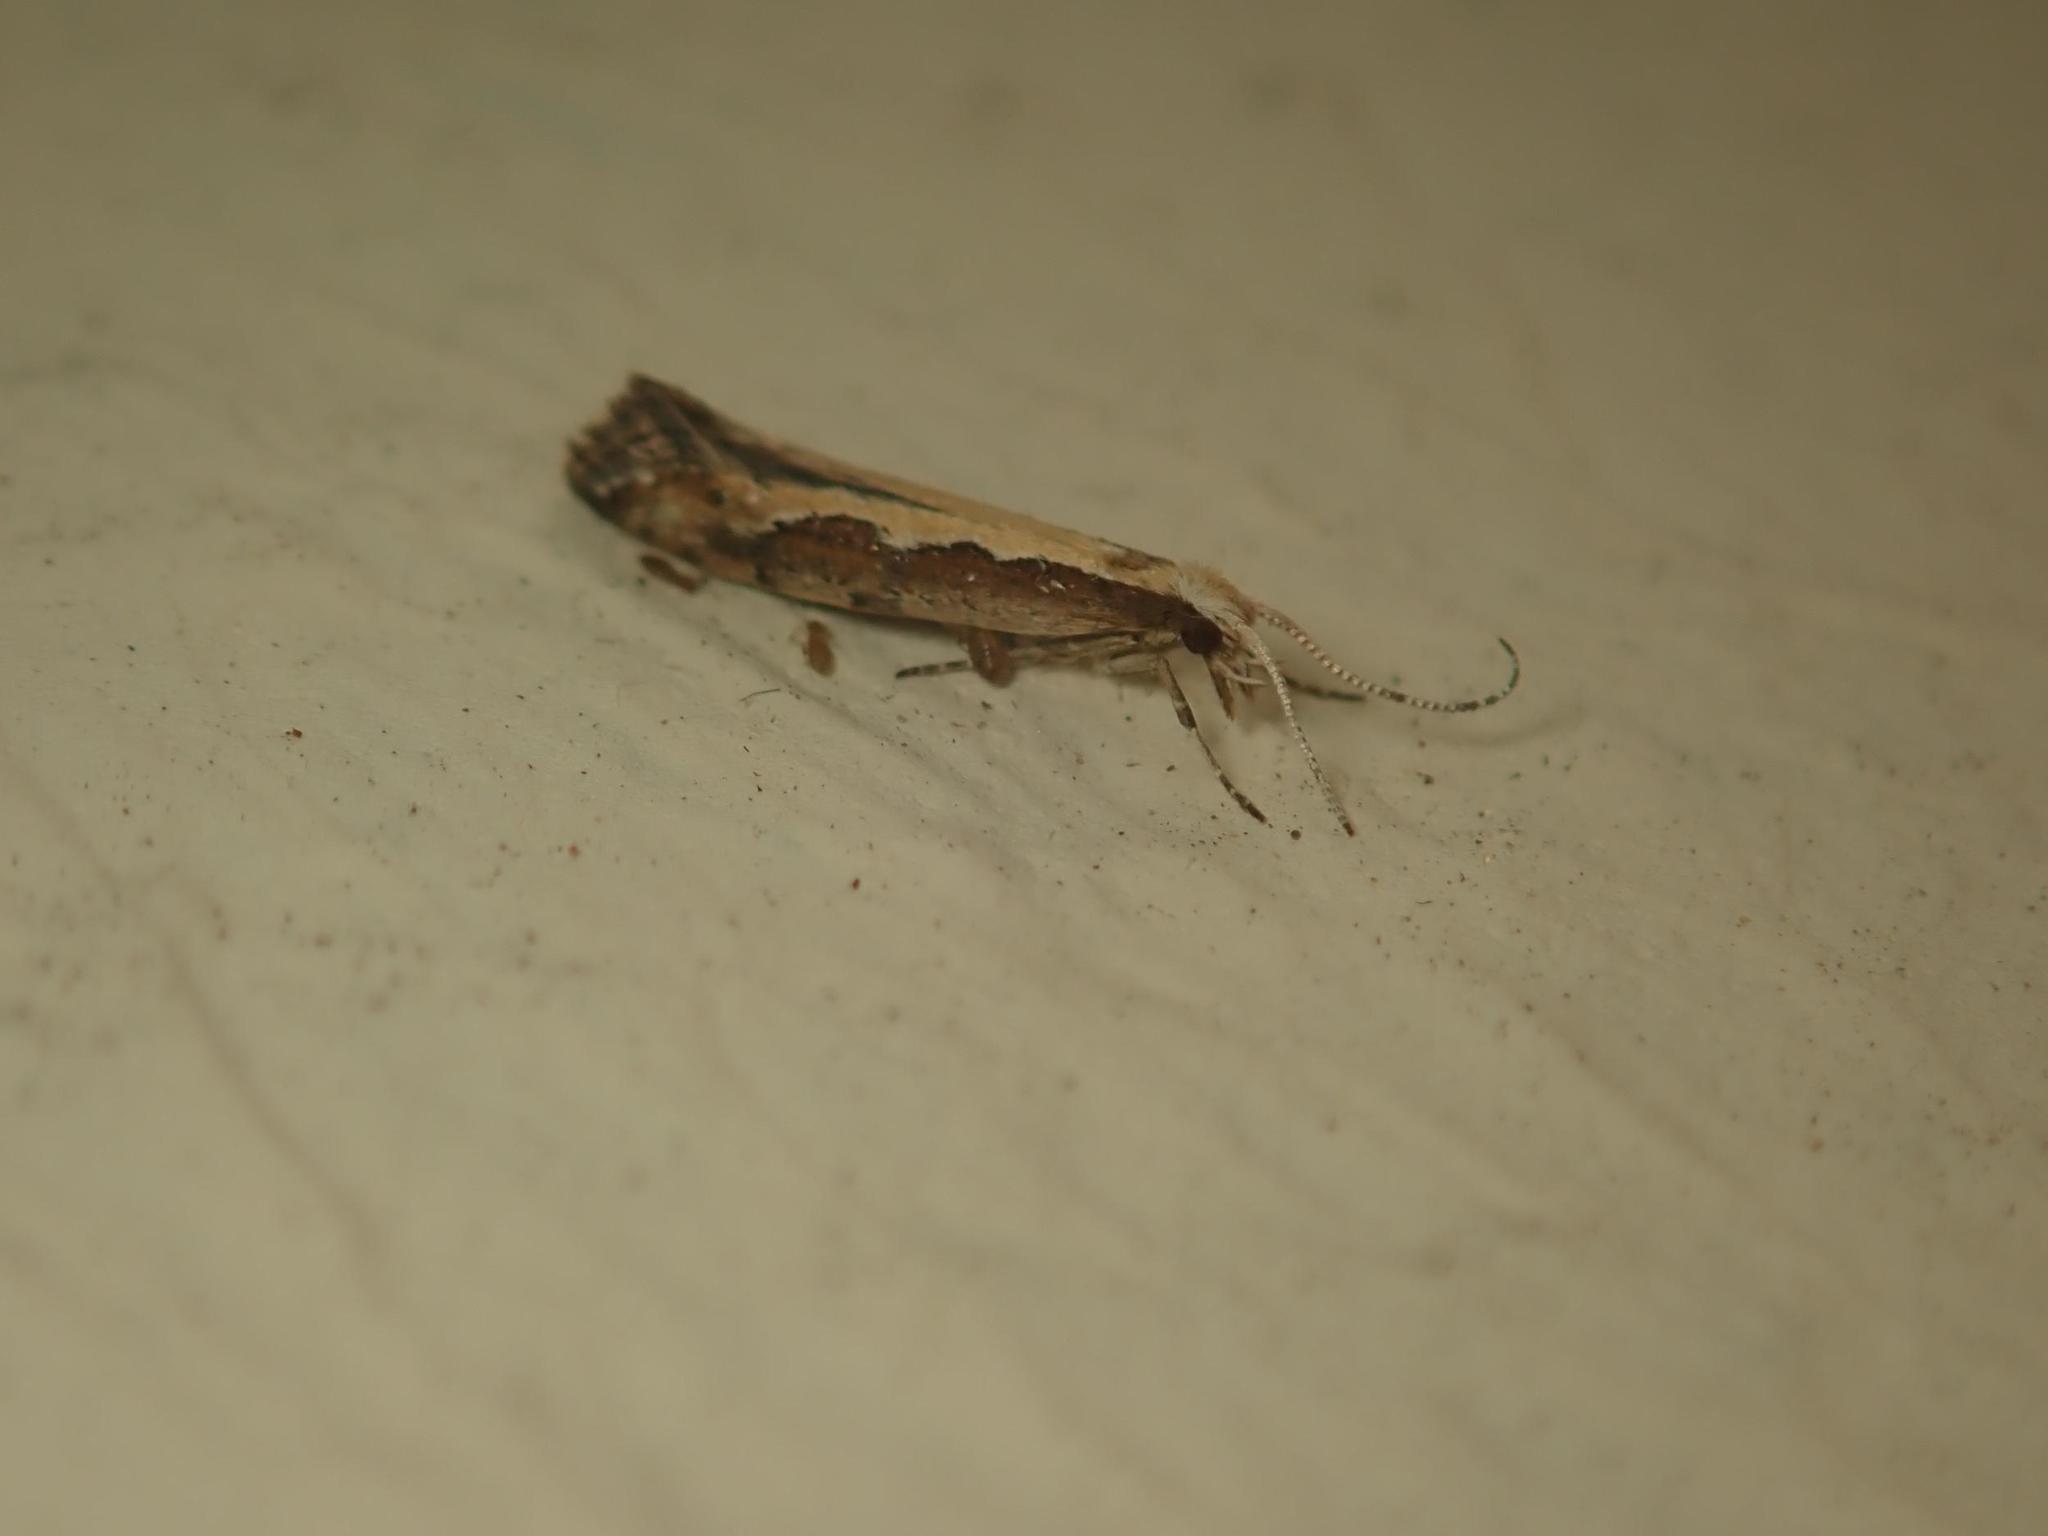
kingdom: Animalia
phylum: Arthropoda
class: Insecta
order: Lepidoptera
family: Plutellidae
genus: Plutella
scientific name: Plutella xylostella
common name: Diamond-back moth
